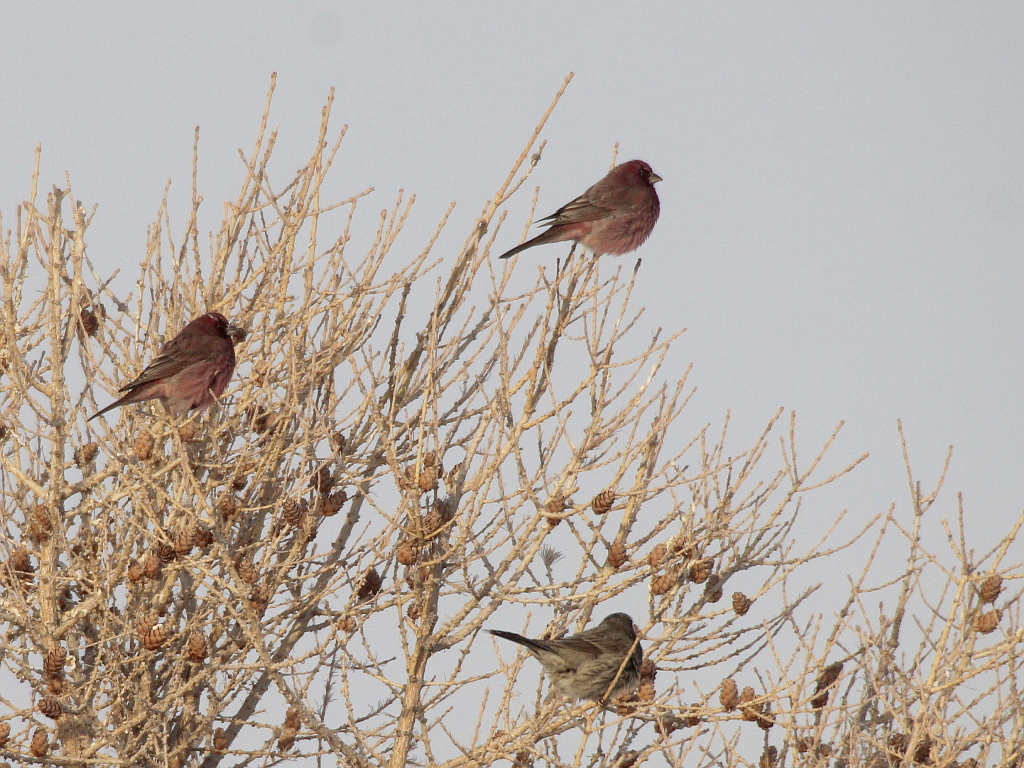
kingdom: Animalia
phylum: Chordata
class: Aves
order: Passeriformes
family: Fringillidae
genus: Carpodacus
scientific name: Carpodacus rubicilla
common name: Great rosefinch
